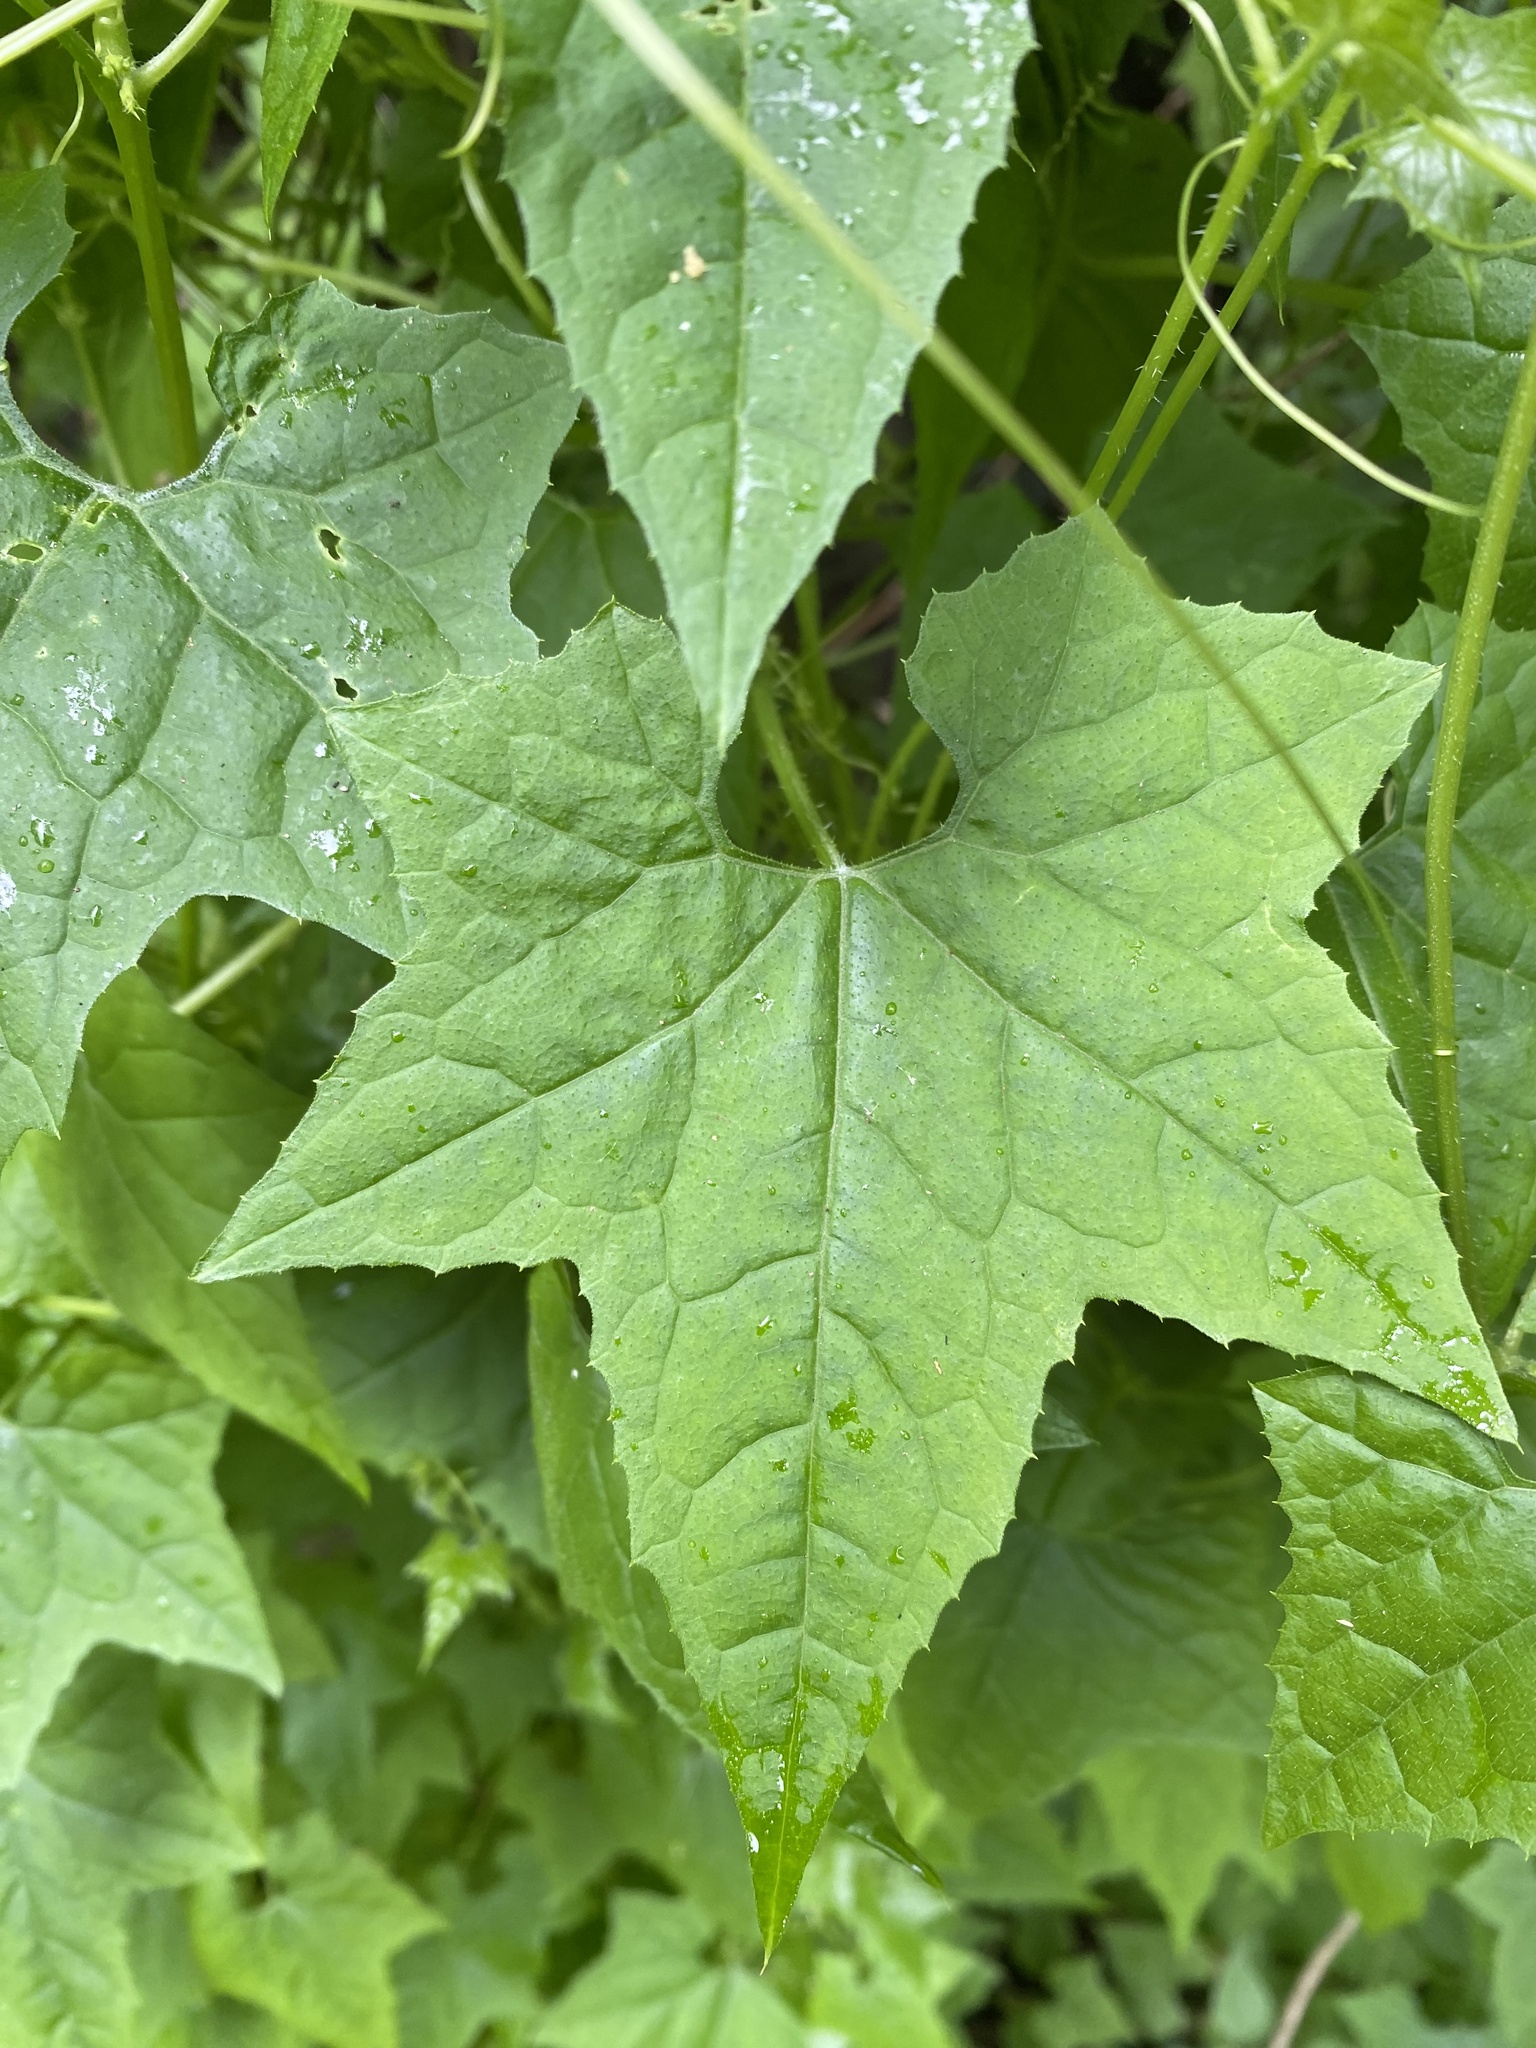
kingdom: Plantae
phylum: Tracheophyta
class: Magnoliopsida
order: Cucurbitales
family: Cucurbitaceae
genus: Sicyos
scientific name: Sicyos australis
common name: Angle-cucumber
